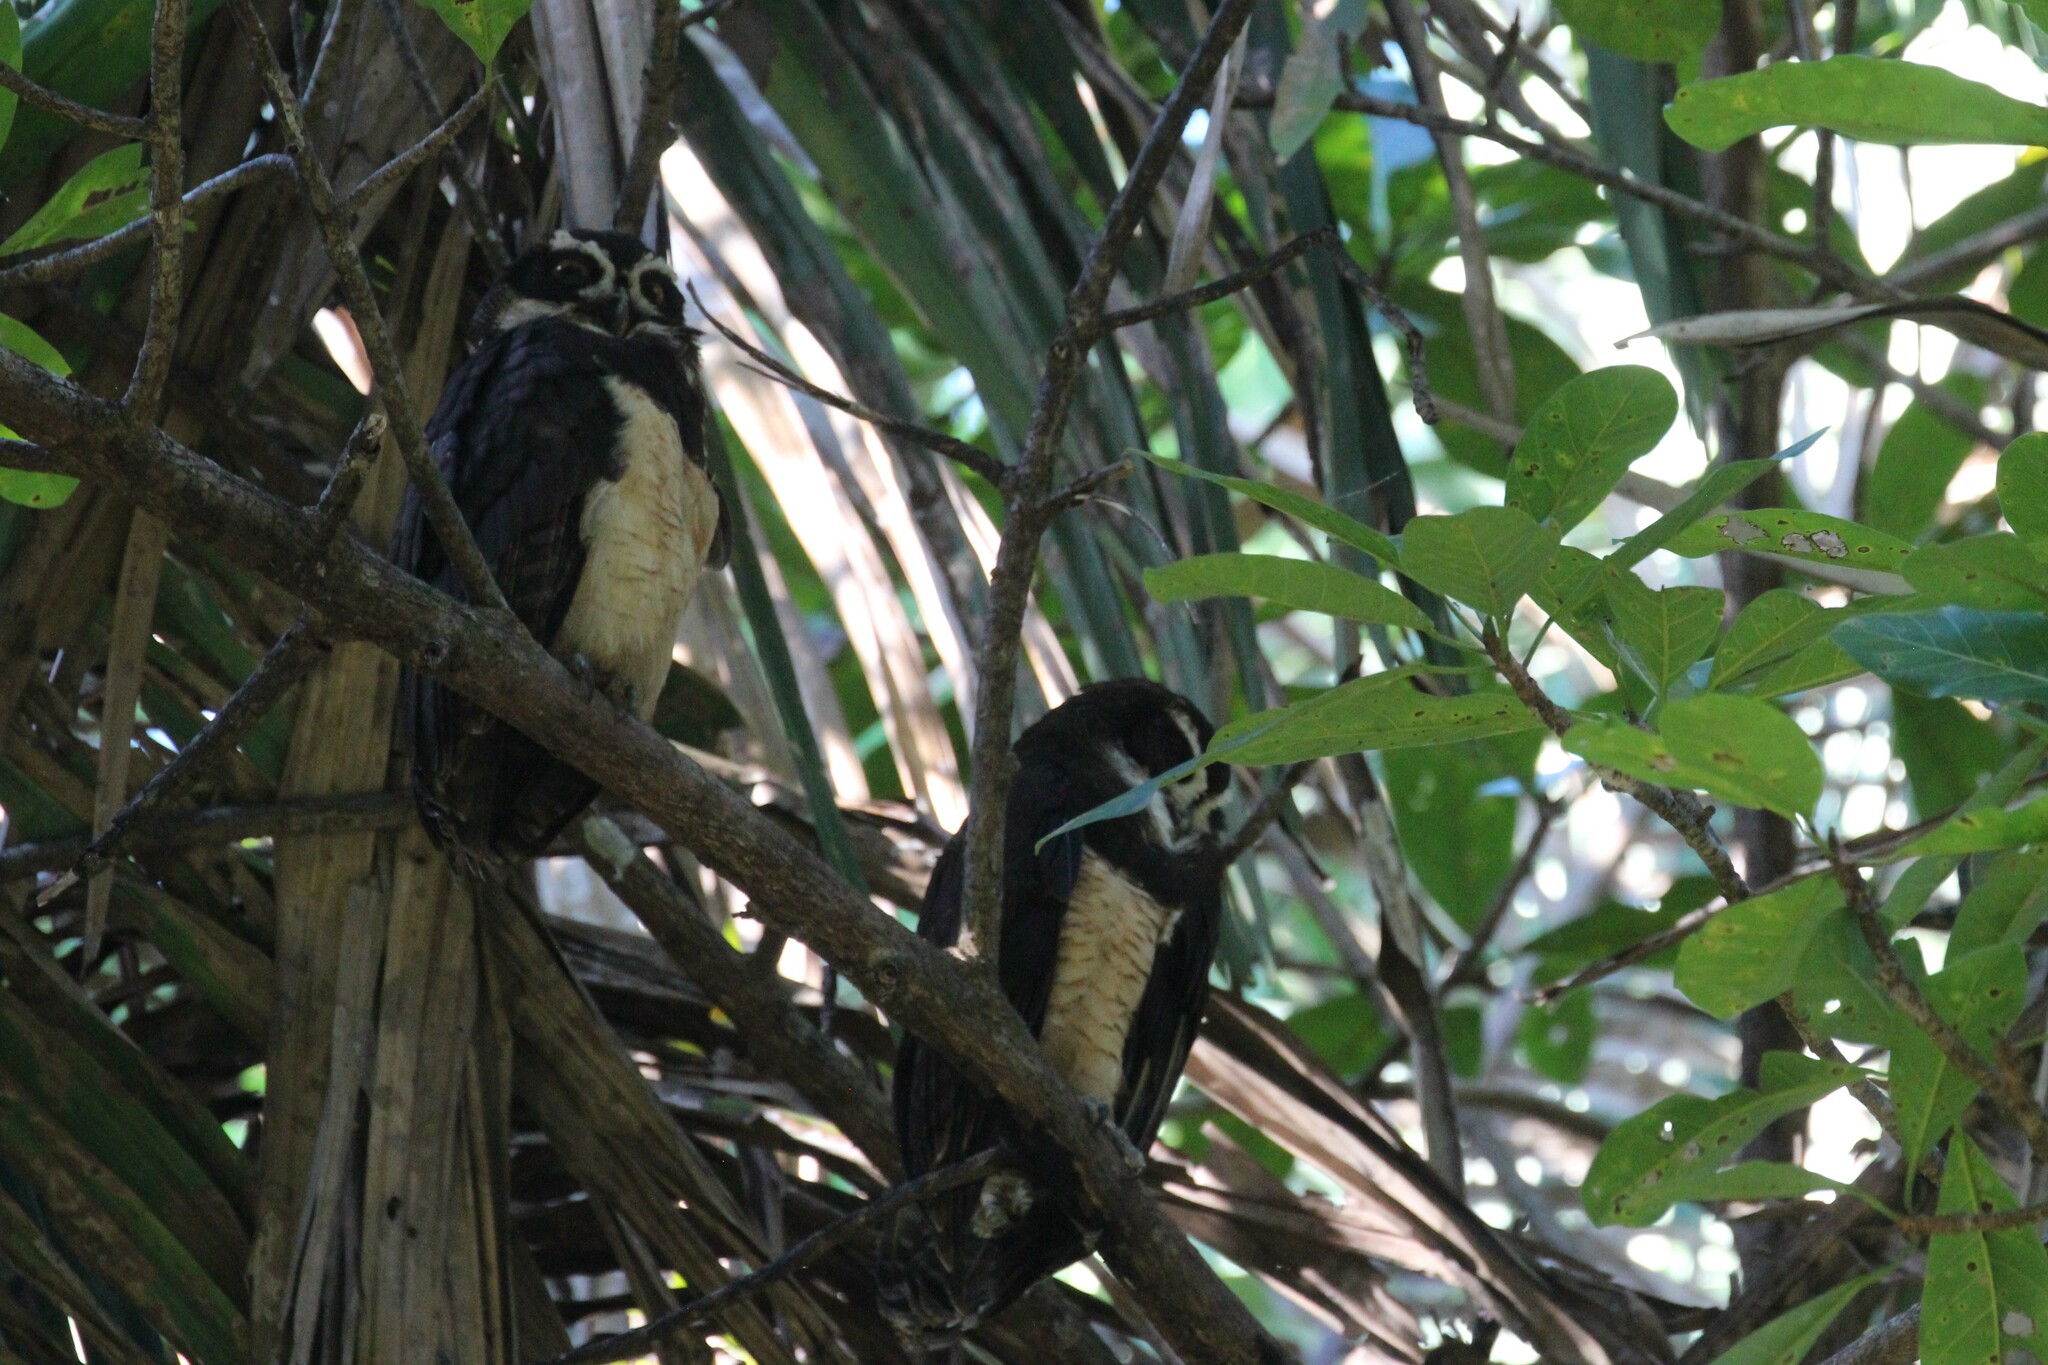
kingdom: Animalia
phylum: Chordata
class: Aves
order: Strigiformes
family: Strigidae
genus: Pulsatrix
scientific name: Pulsatrix perspicillata
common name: Spectacled owl
